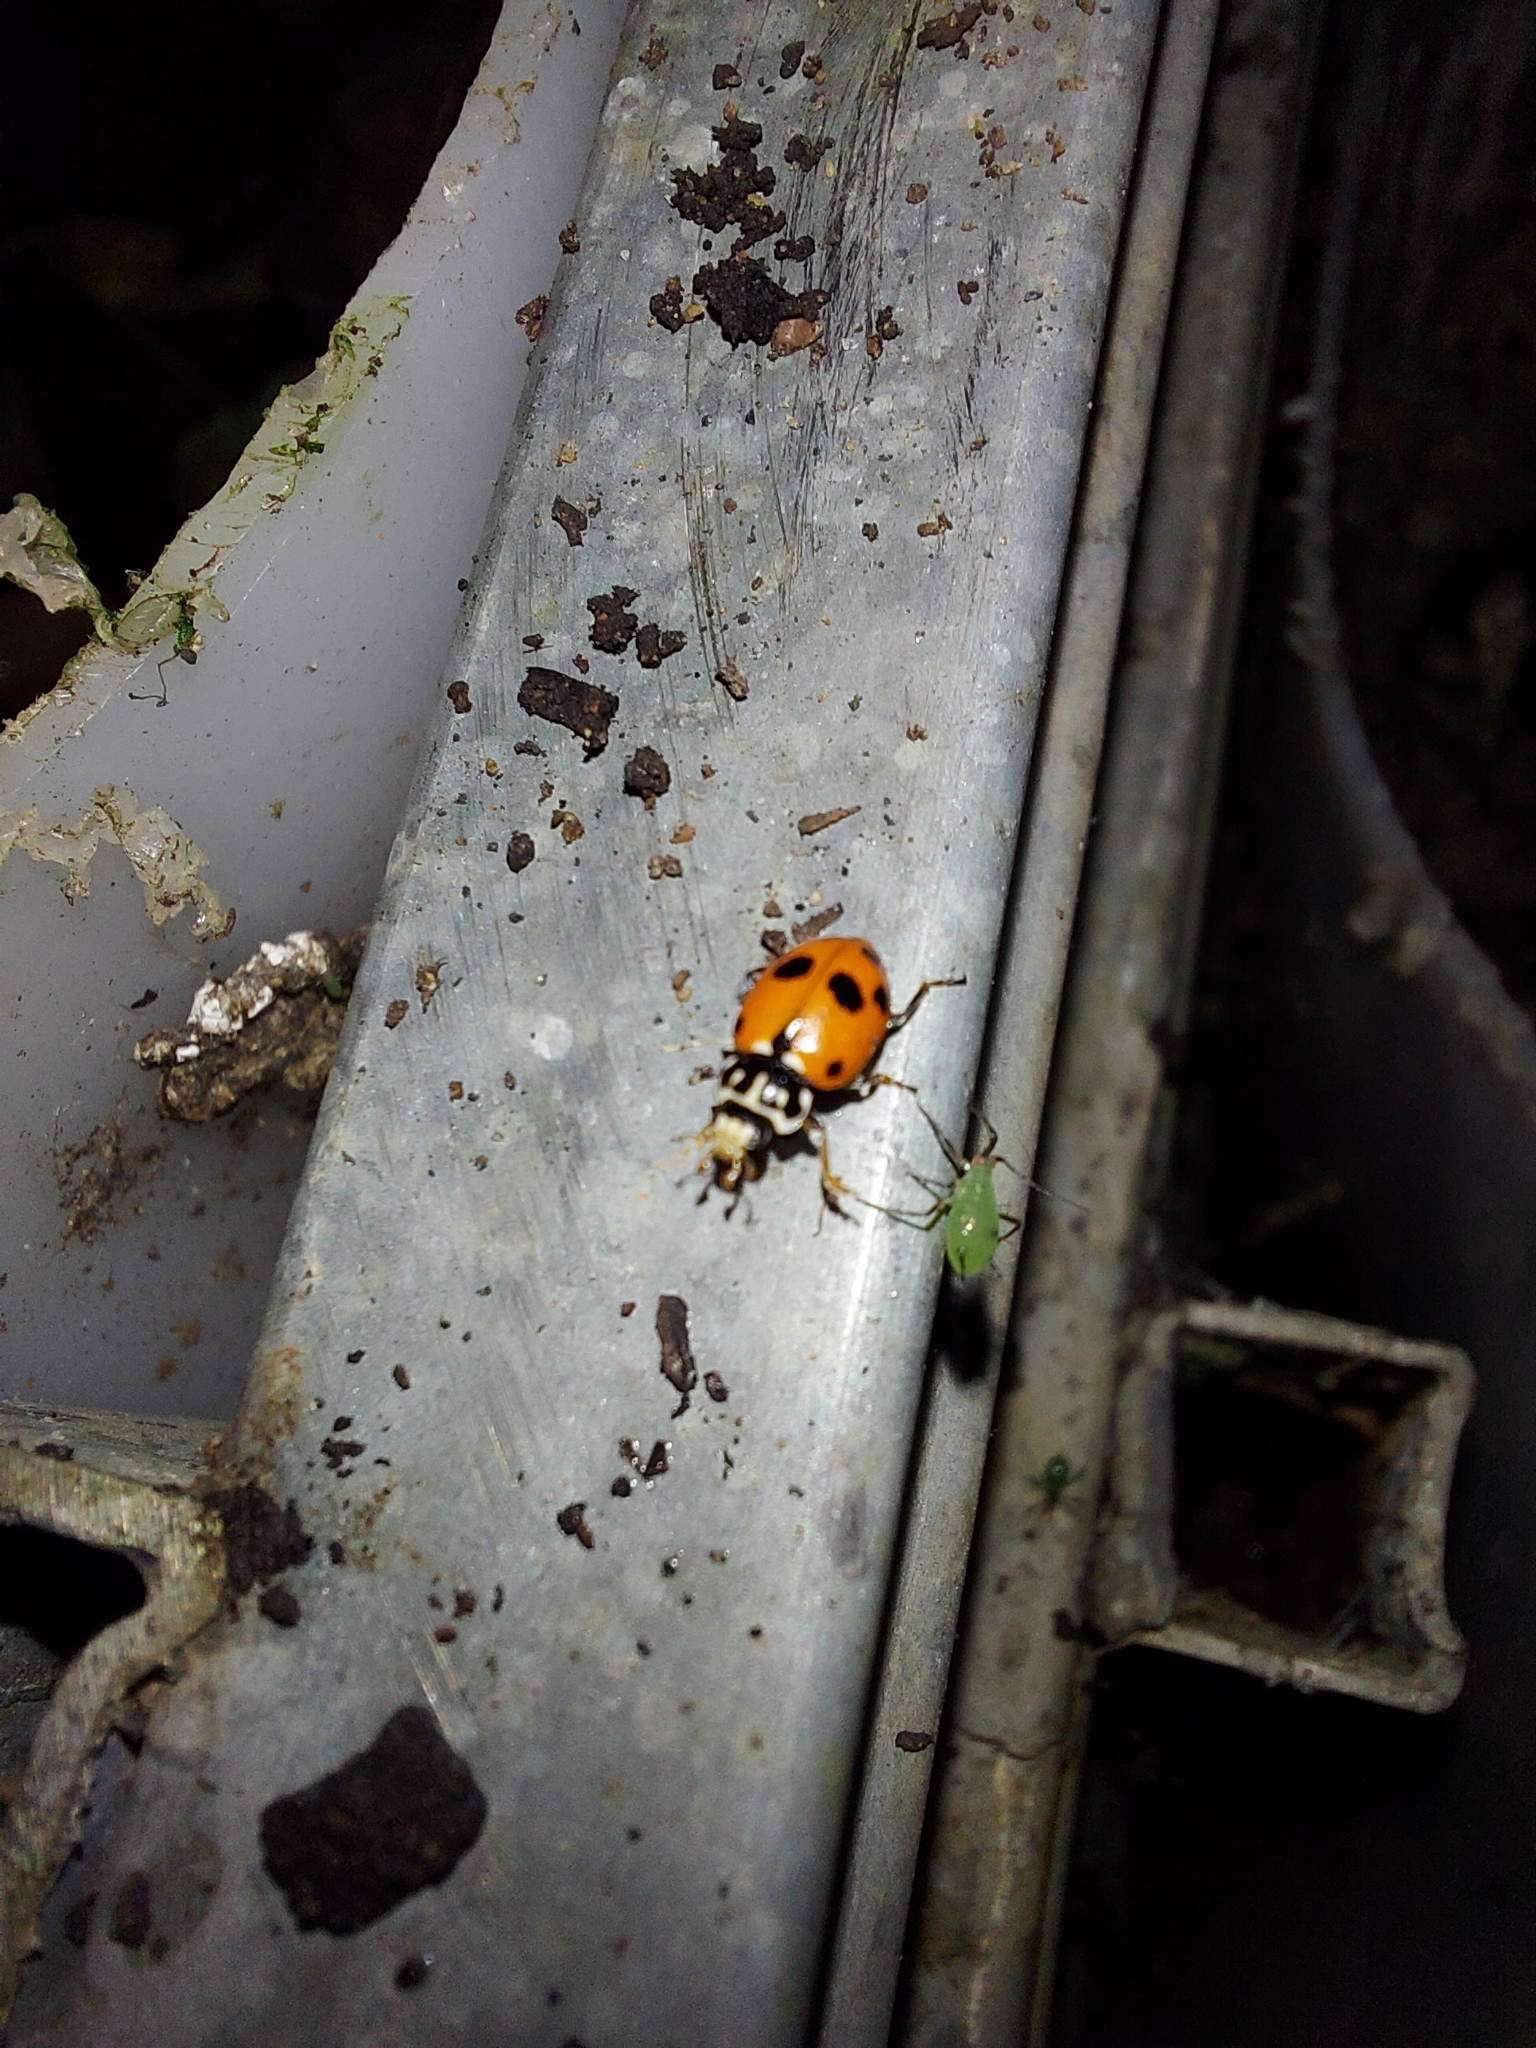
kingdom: Animalia
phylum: Arthropoda
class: Insecta
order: Coleoptera
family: Coccinellidae
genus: Hippodamia
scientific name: Hippodamia variegata
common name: Ladybird beetle
